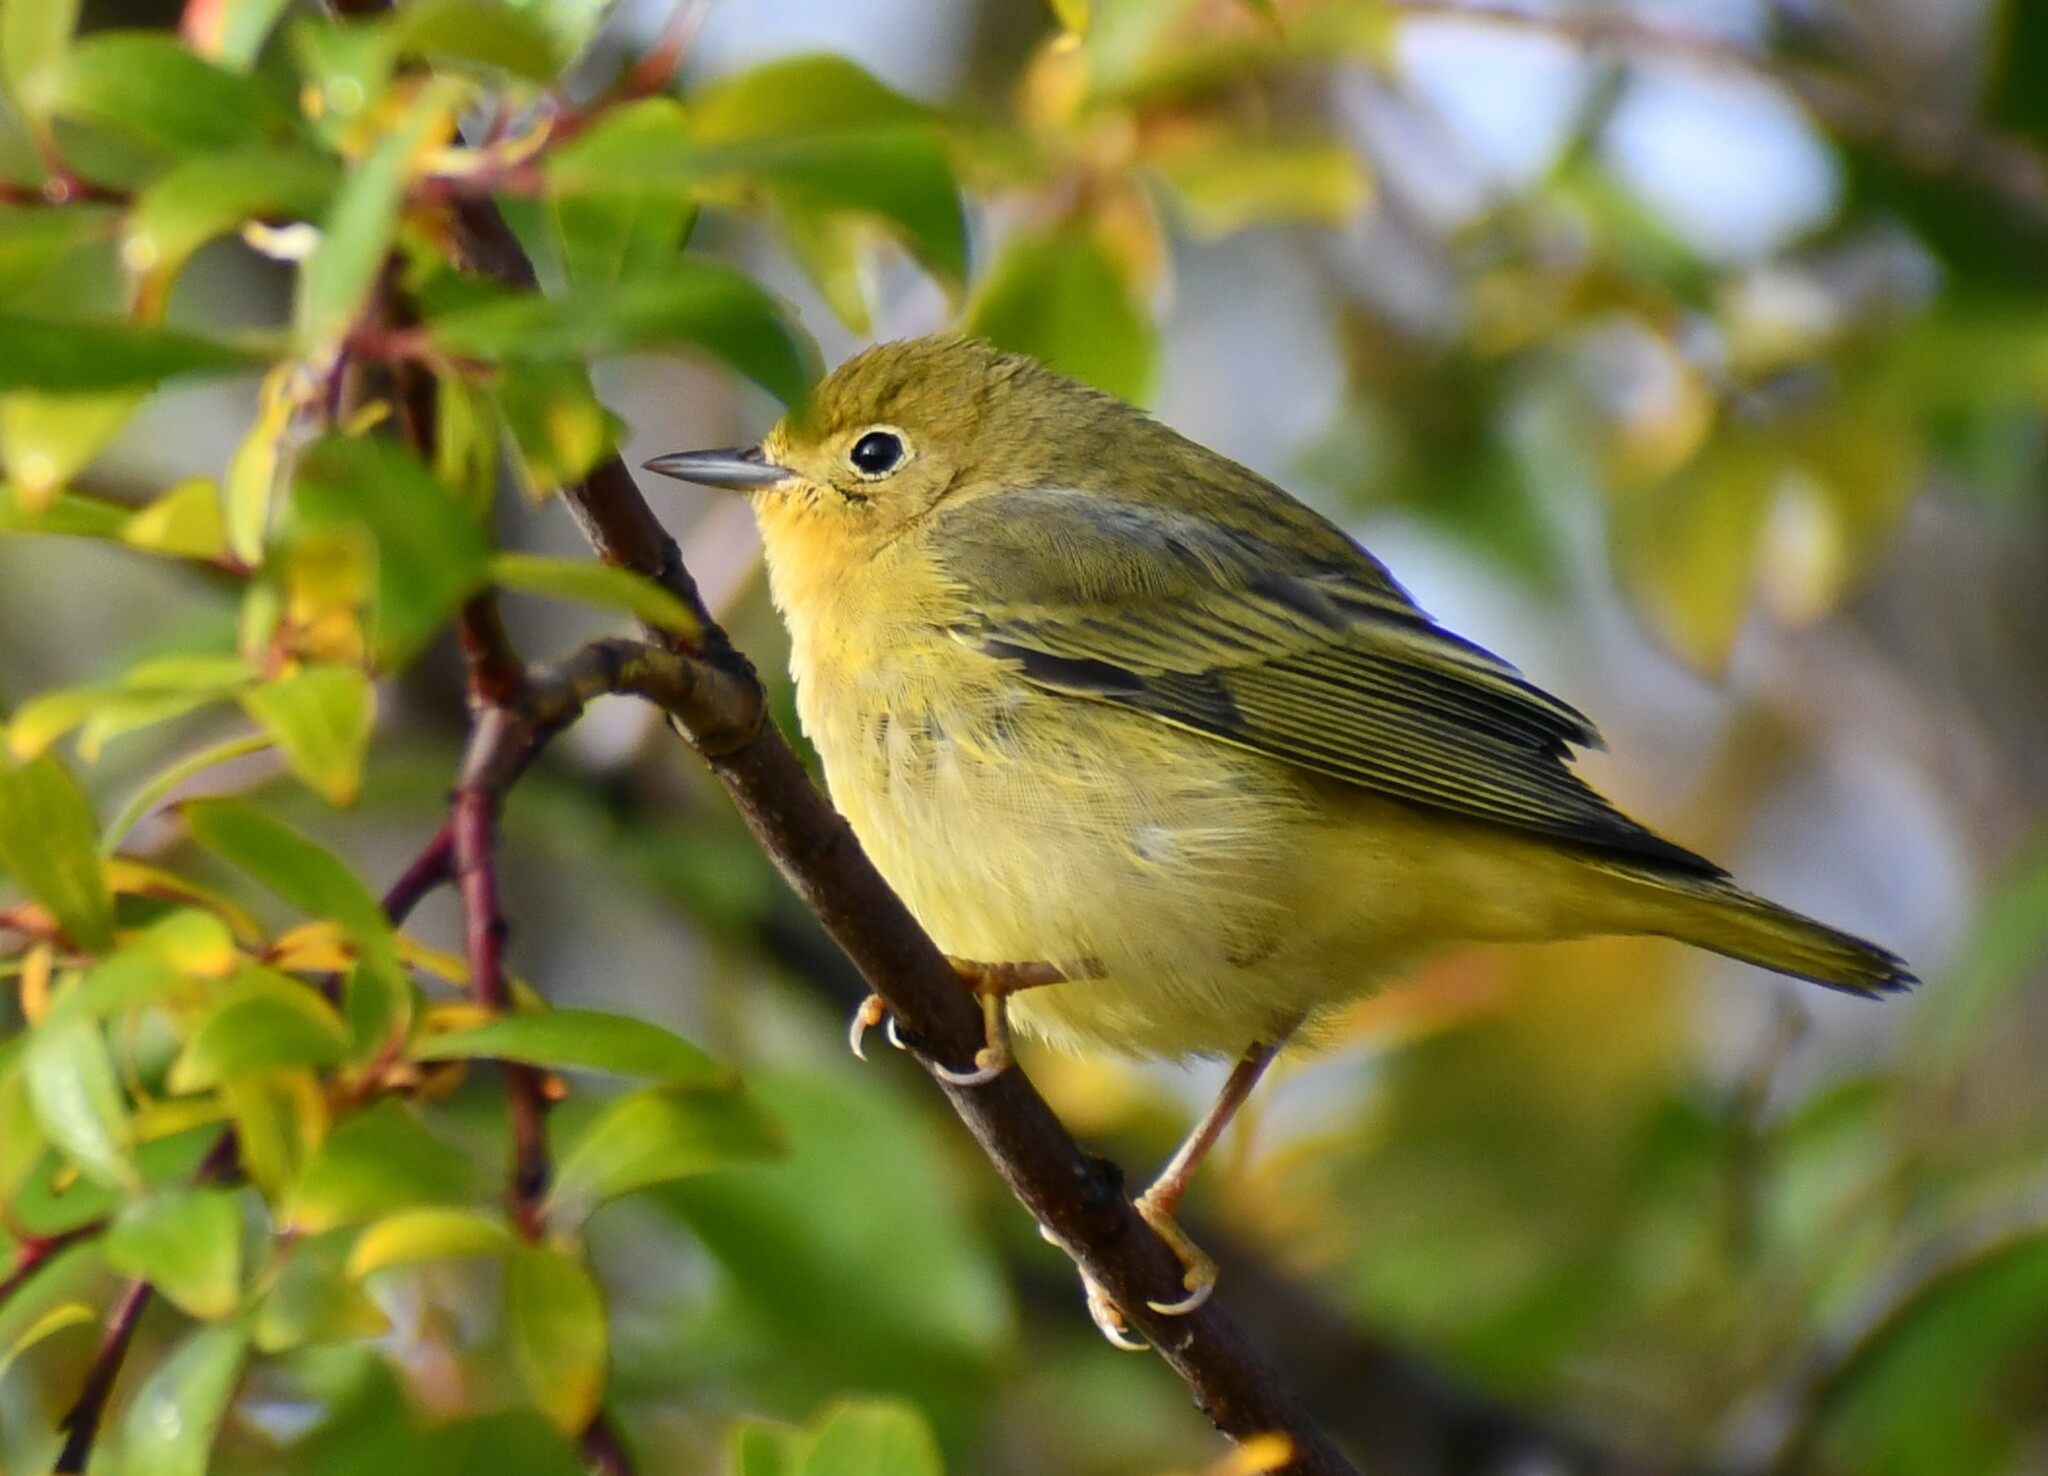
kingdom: Animalia
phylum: Chordata
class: Aves
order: Passeriformes
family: Parulidae
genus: Setophaga
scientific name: Setophaga petechia
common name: Yellow warbler
